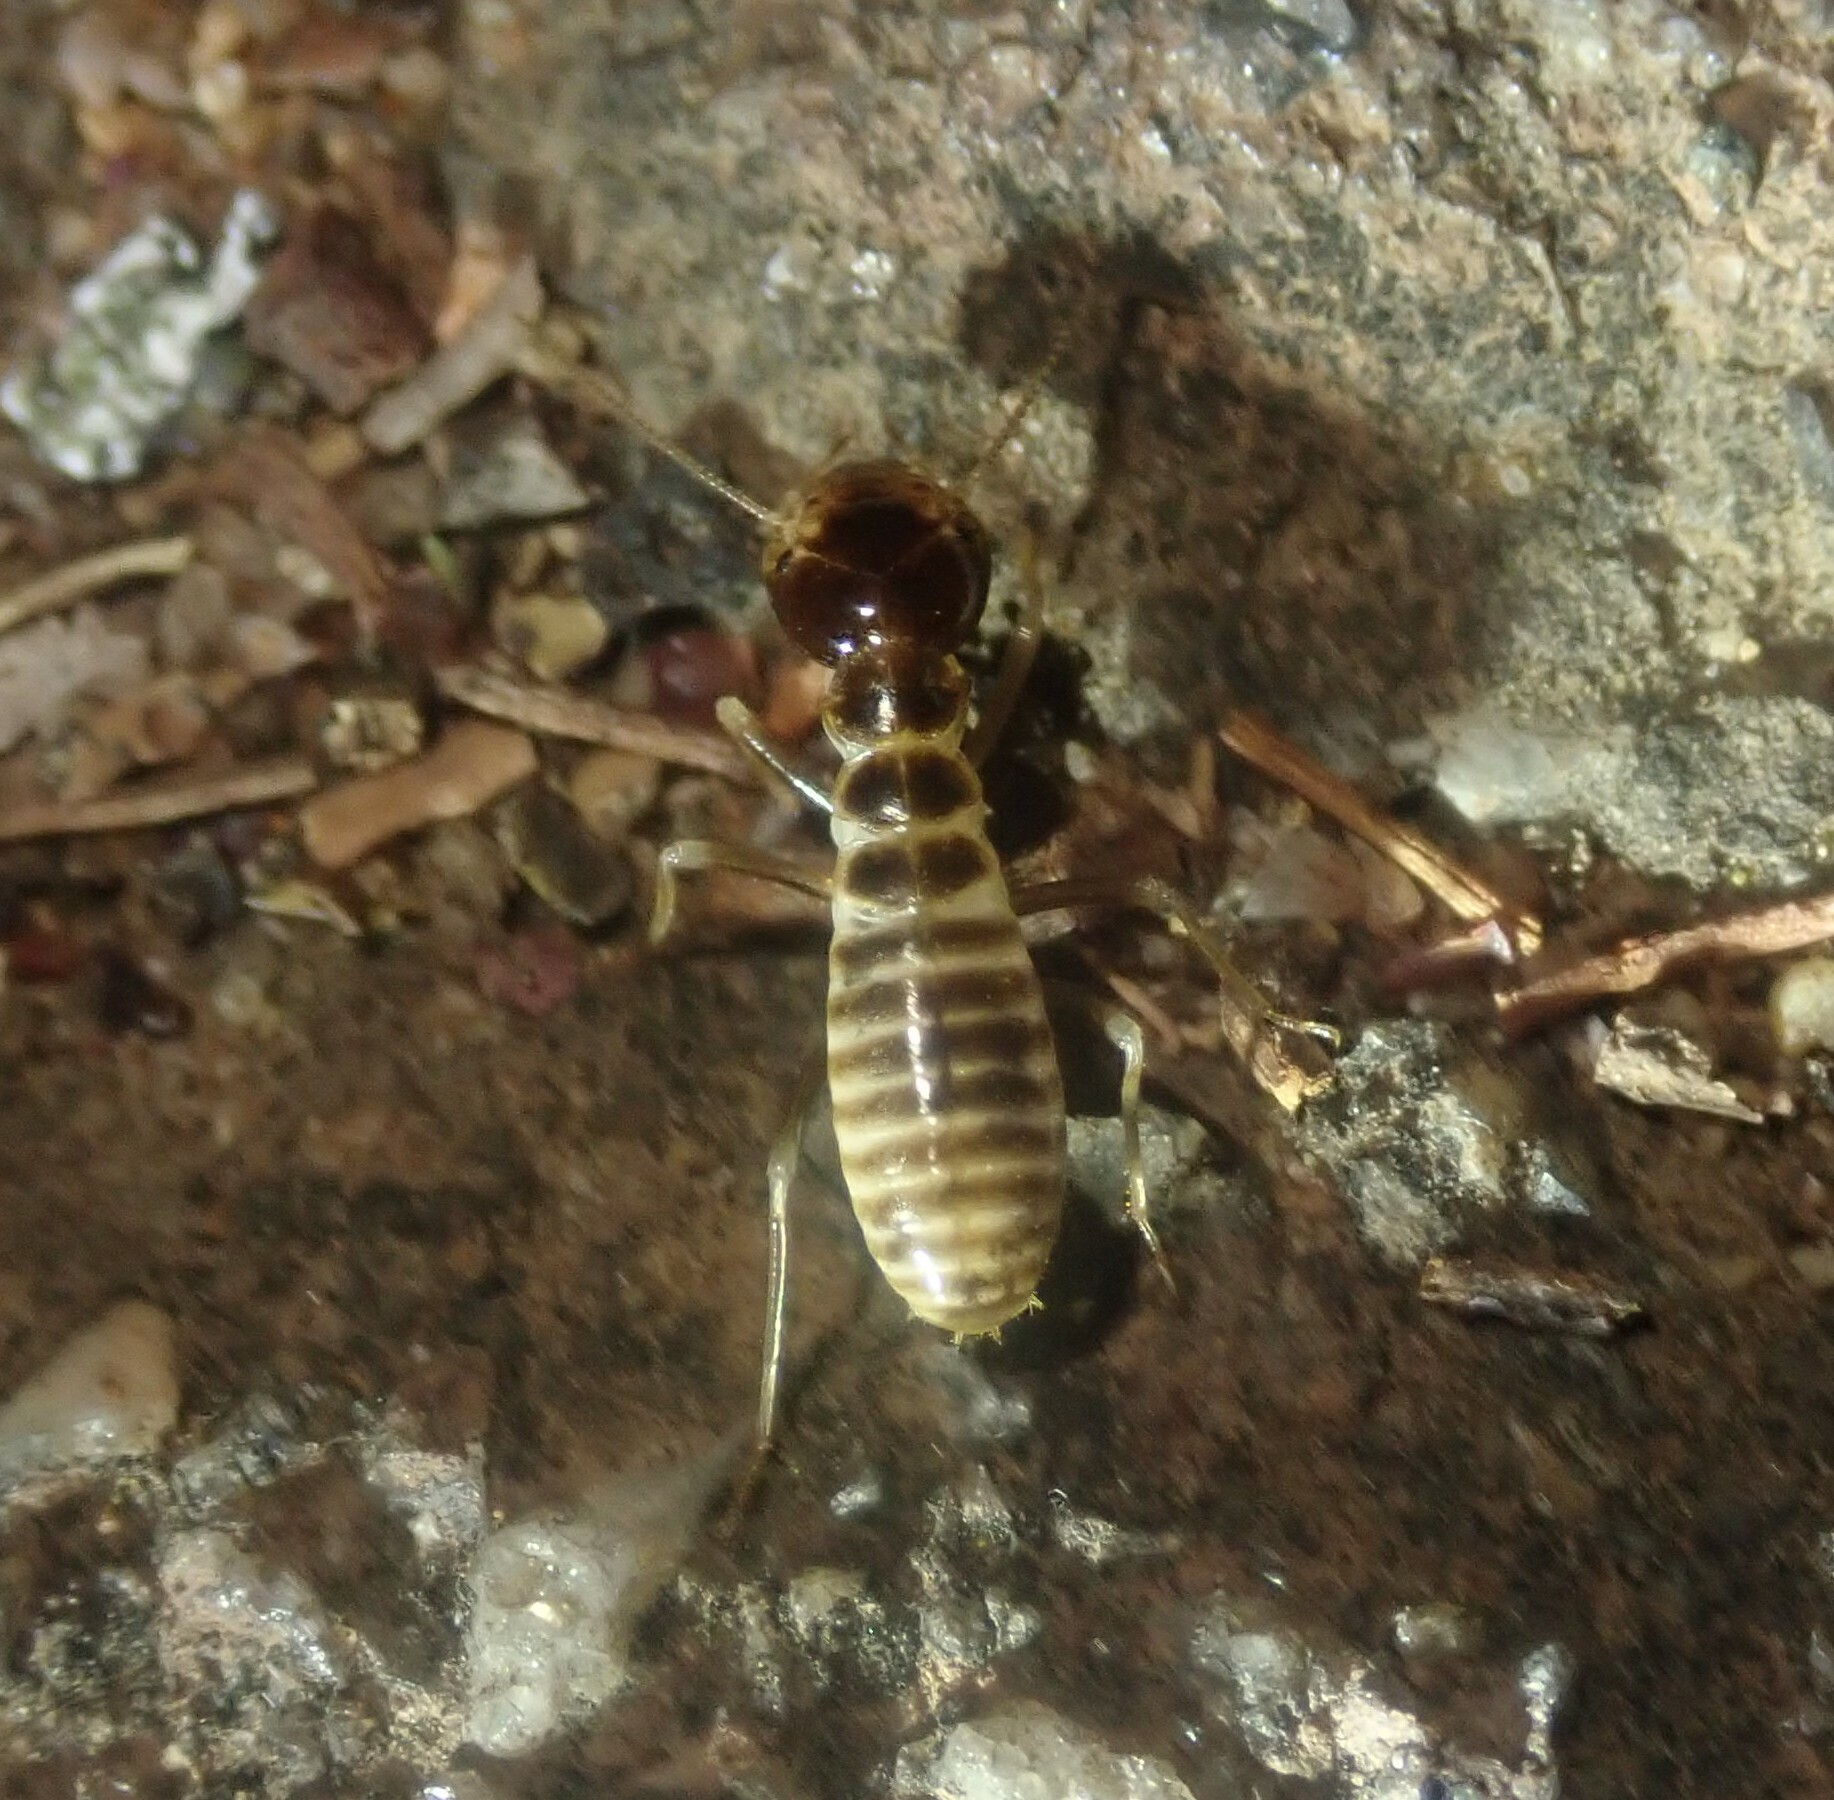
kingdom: Animalia
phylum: Arthropoda
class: Insecta
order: Blattodea
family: Hodotermitidae
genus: Hodotermes
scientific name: Hodotermes mossambicus
